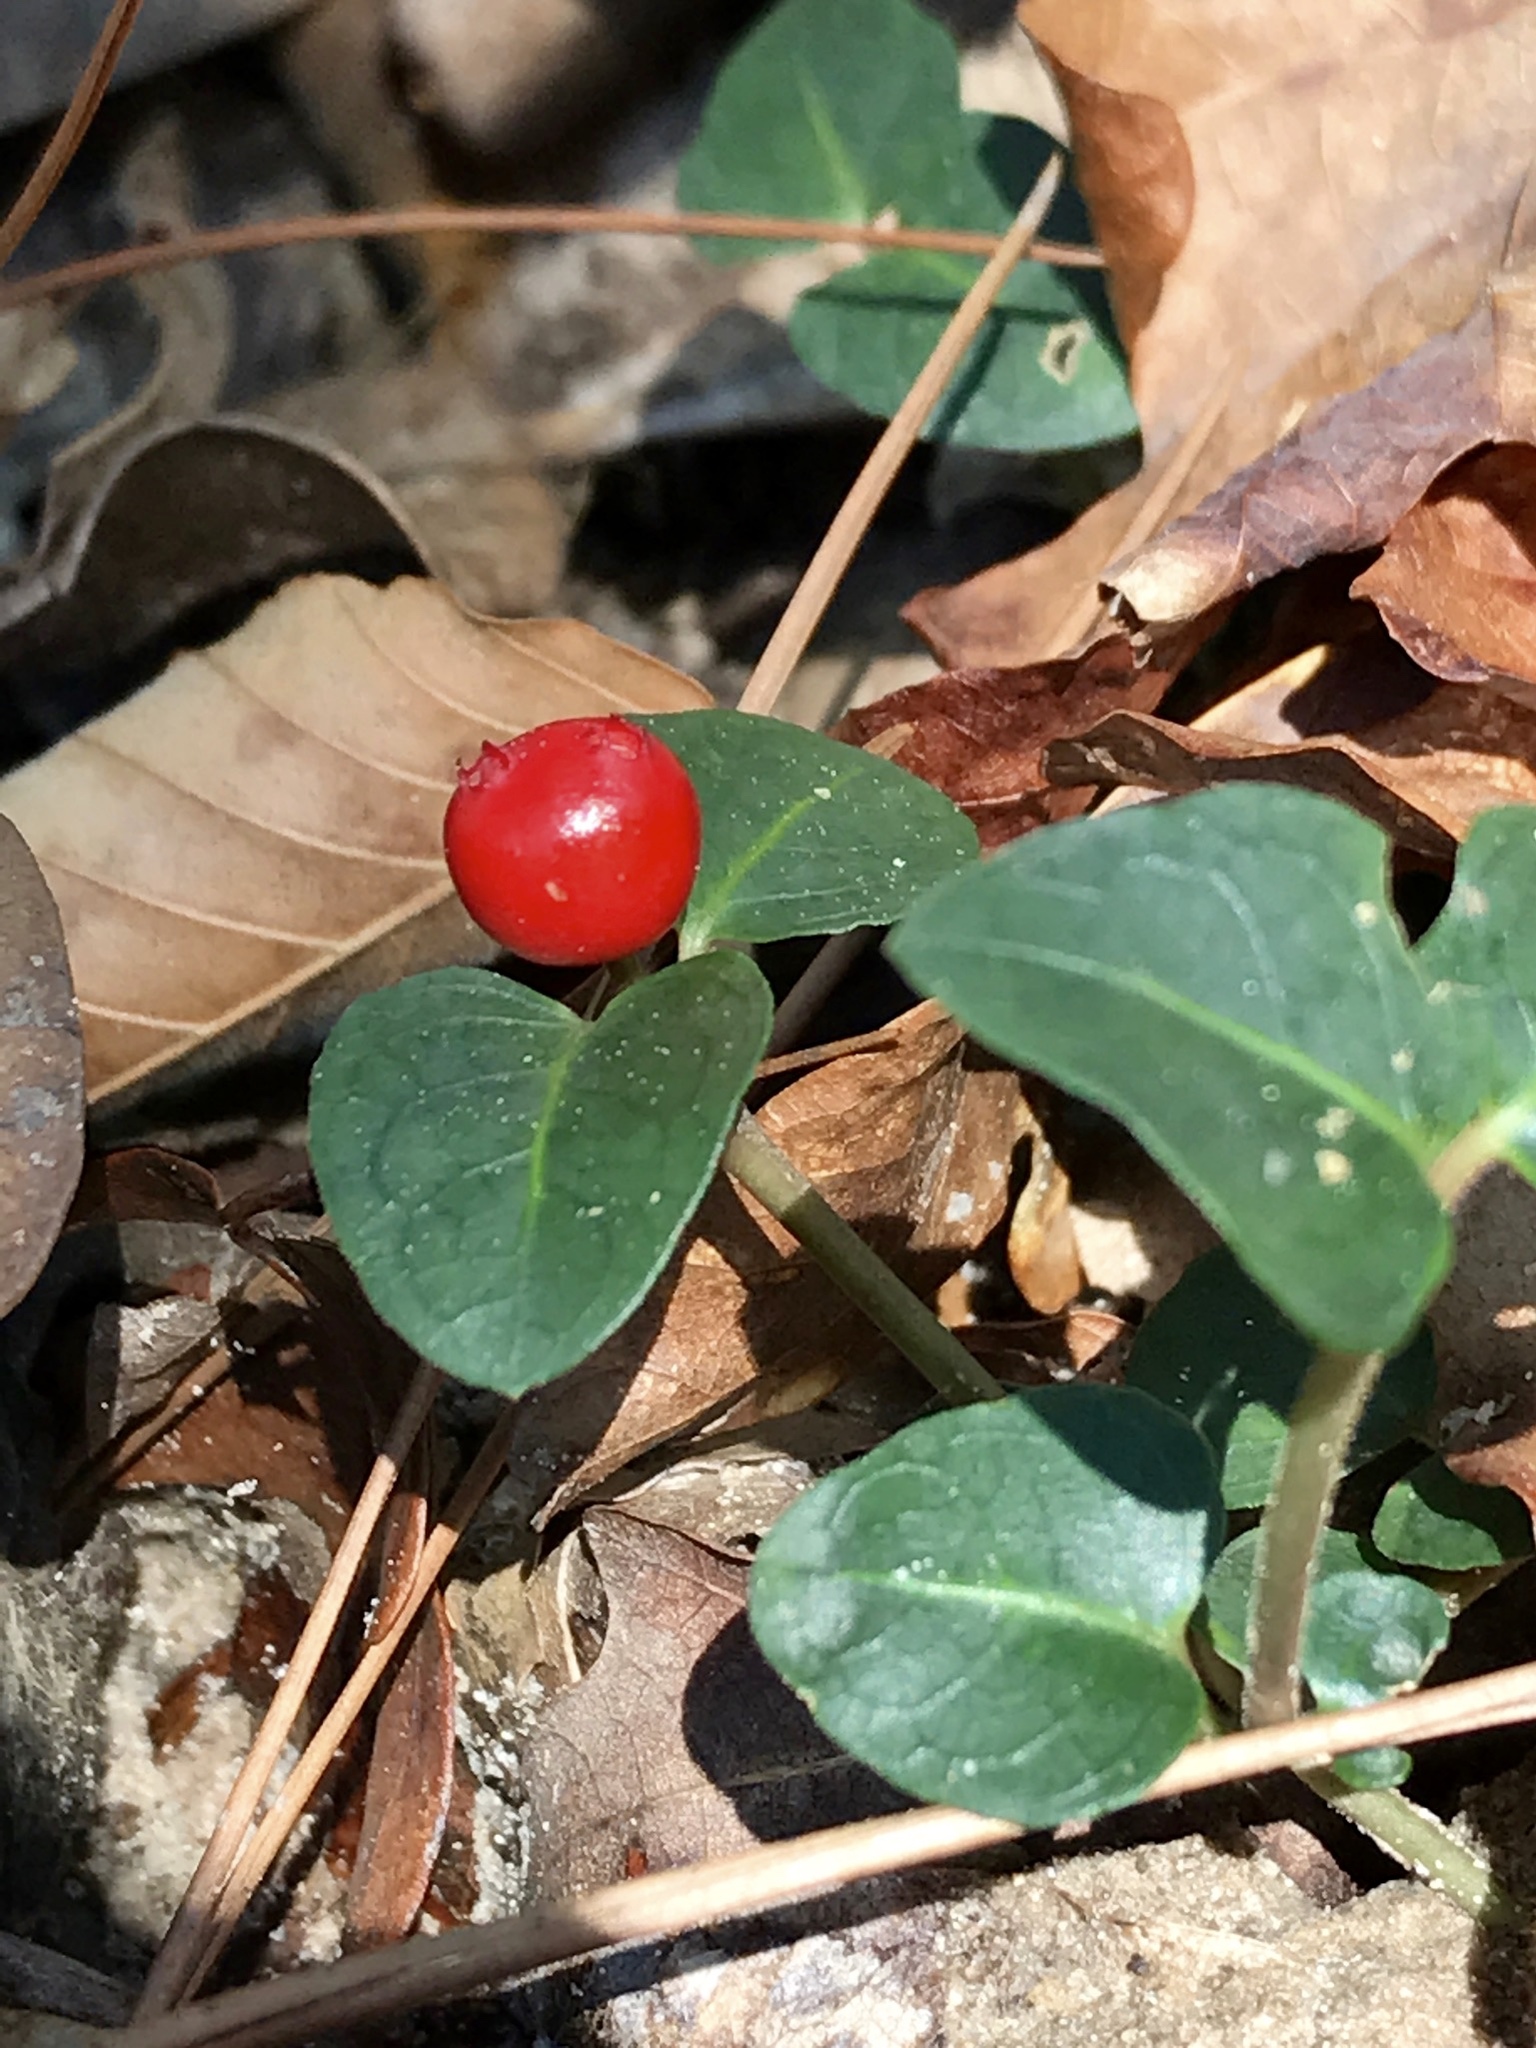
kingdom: Plantae
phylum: Tracheophyta
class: Magnoliopsida
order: Gentianales
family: Rubiaceae
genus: Mitchella
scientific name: Mitchella repens
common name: Partridge-berry
